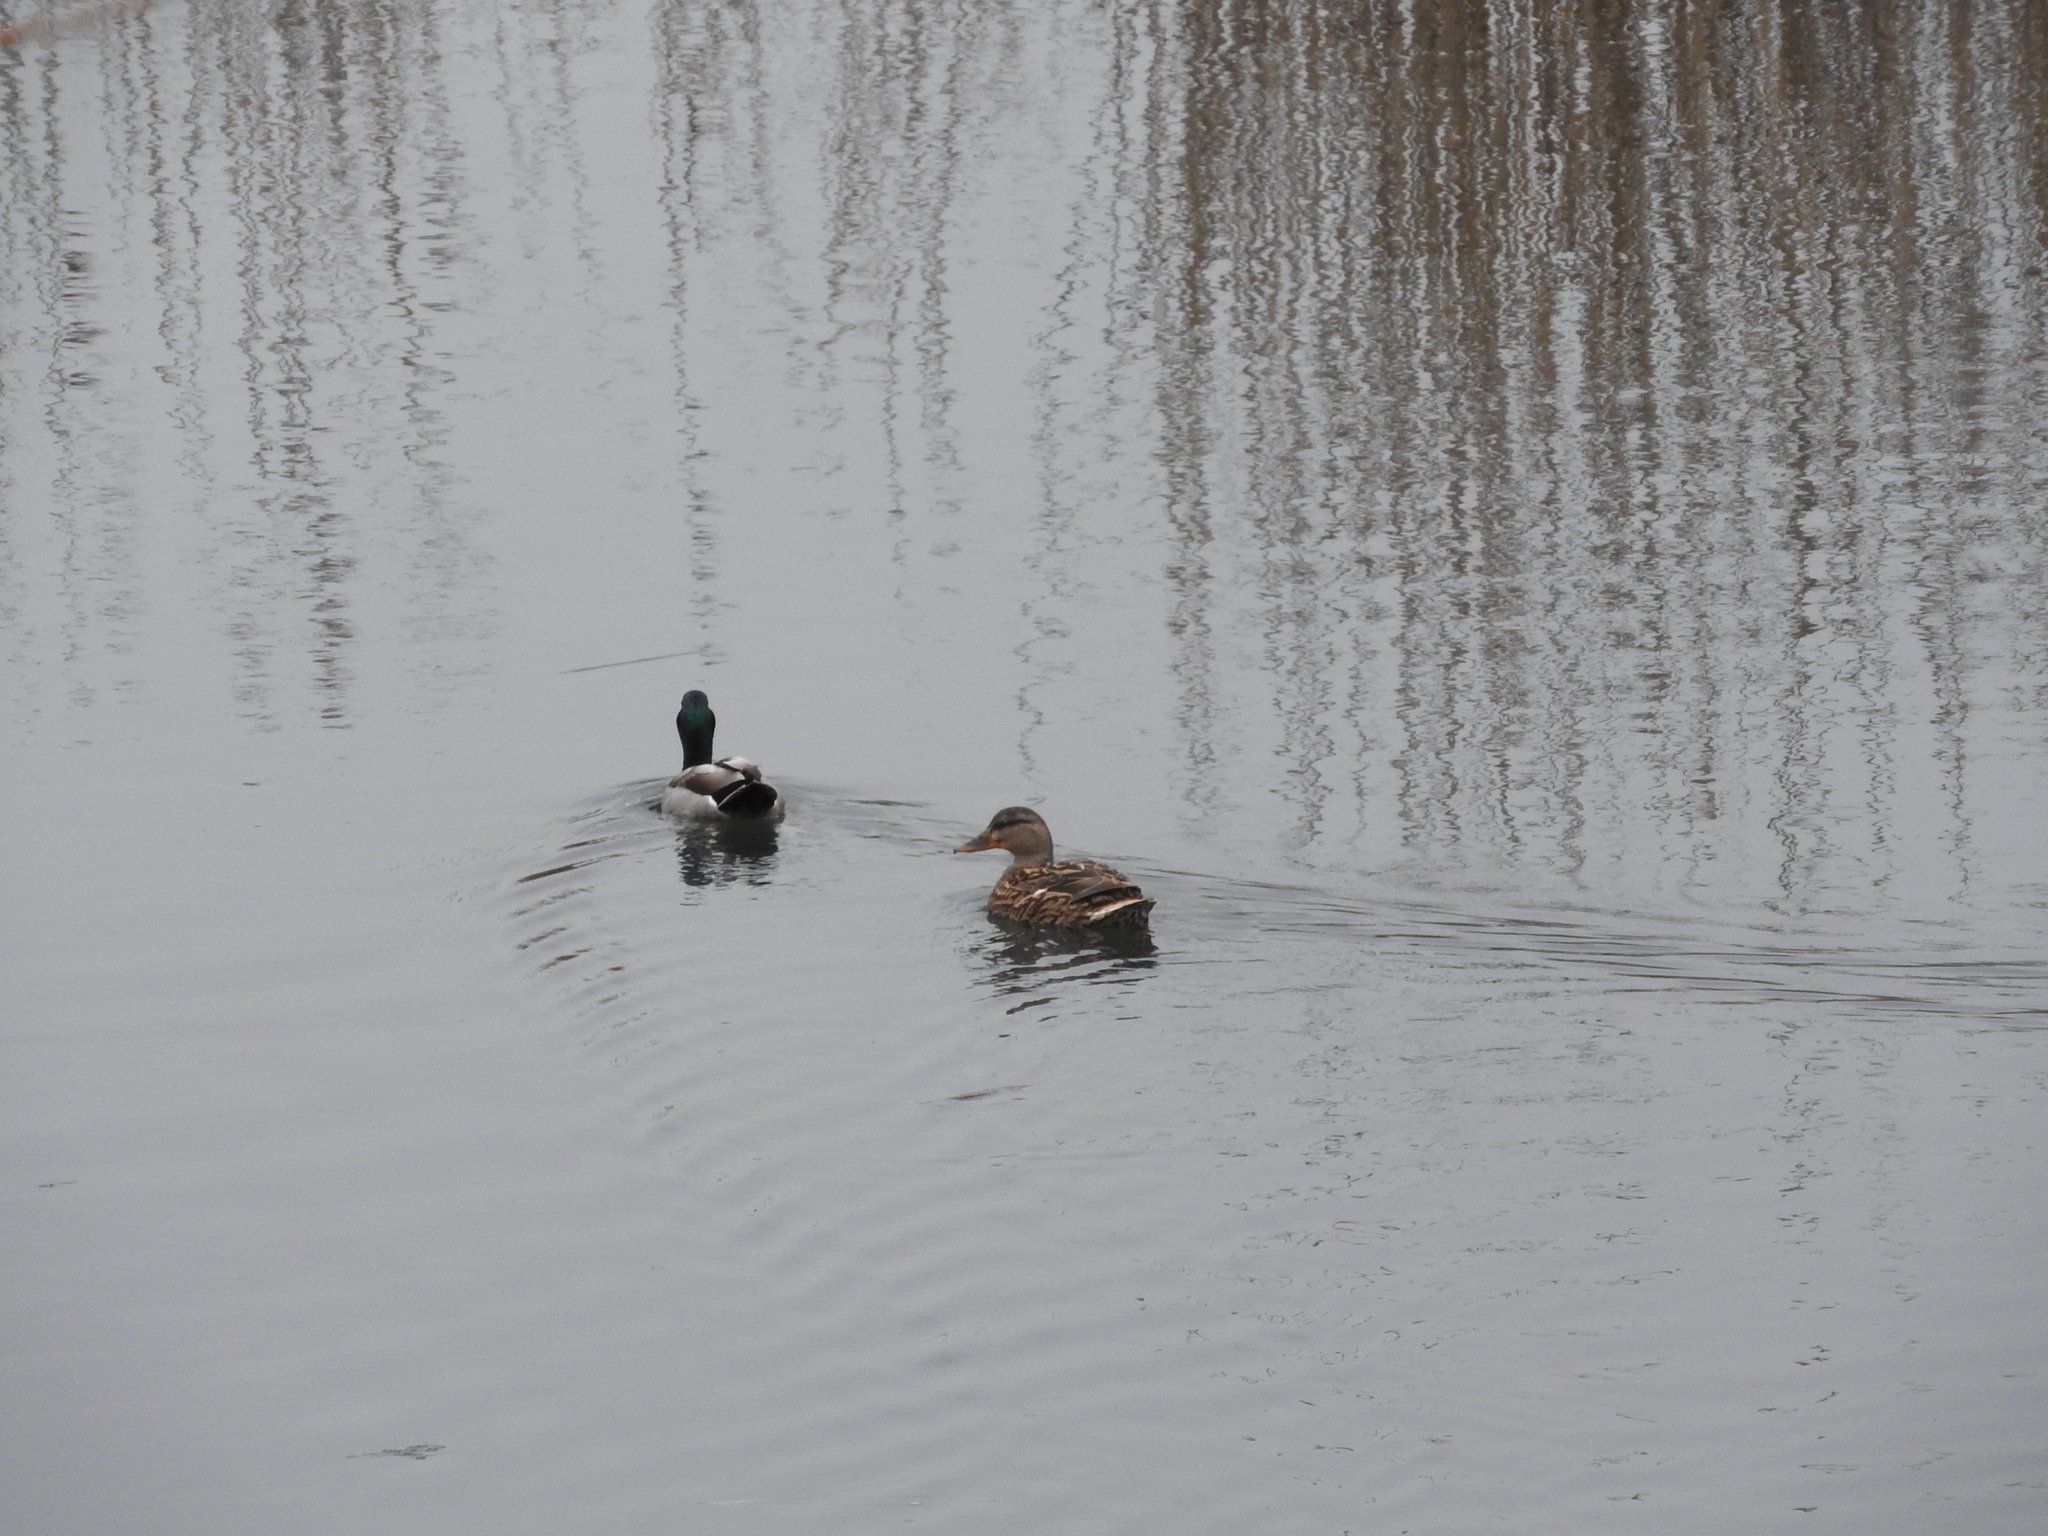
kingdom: Animalia
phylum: Chordata
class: Aves
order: Anseriformes
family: Anatidae
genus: Anas
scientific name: Anas platyrhynchos
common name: Mallard
